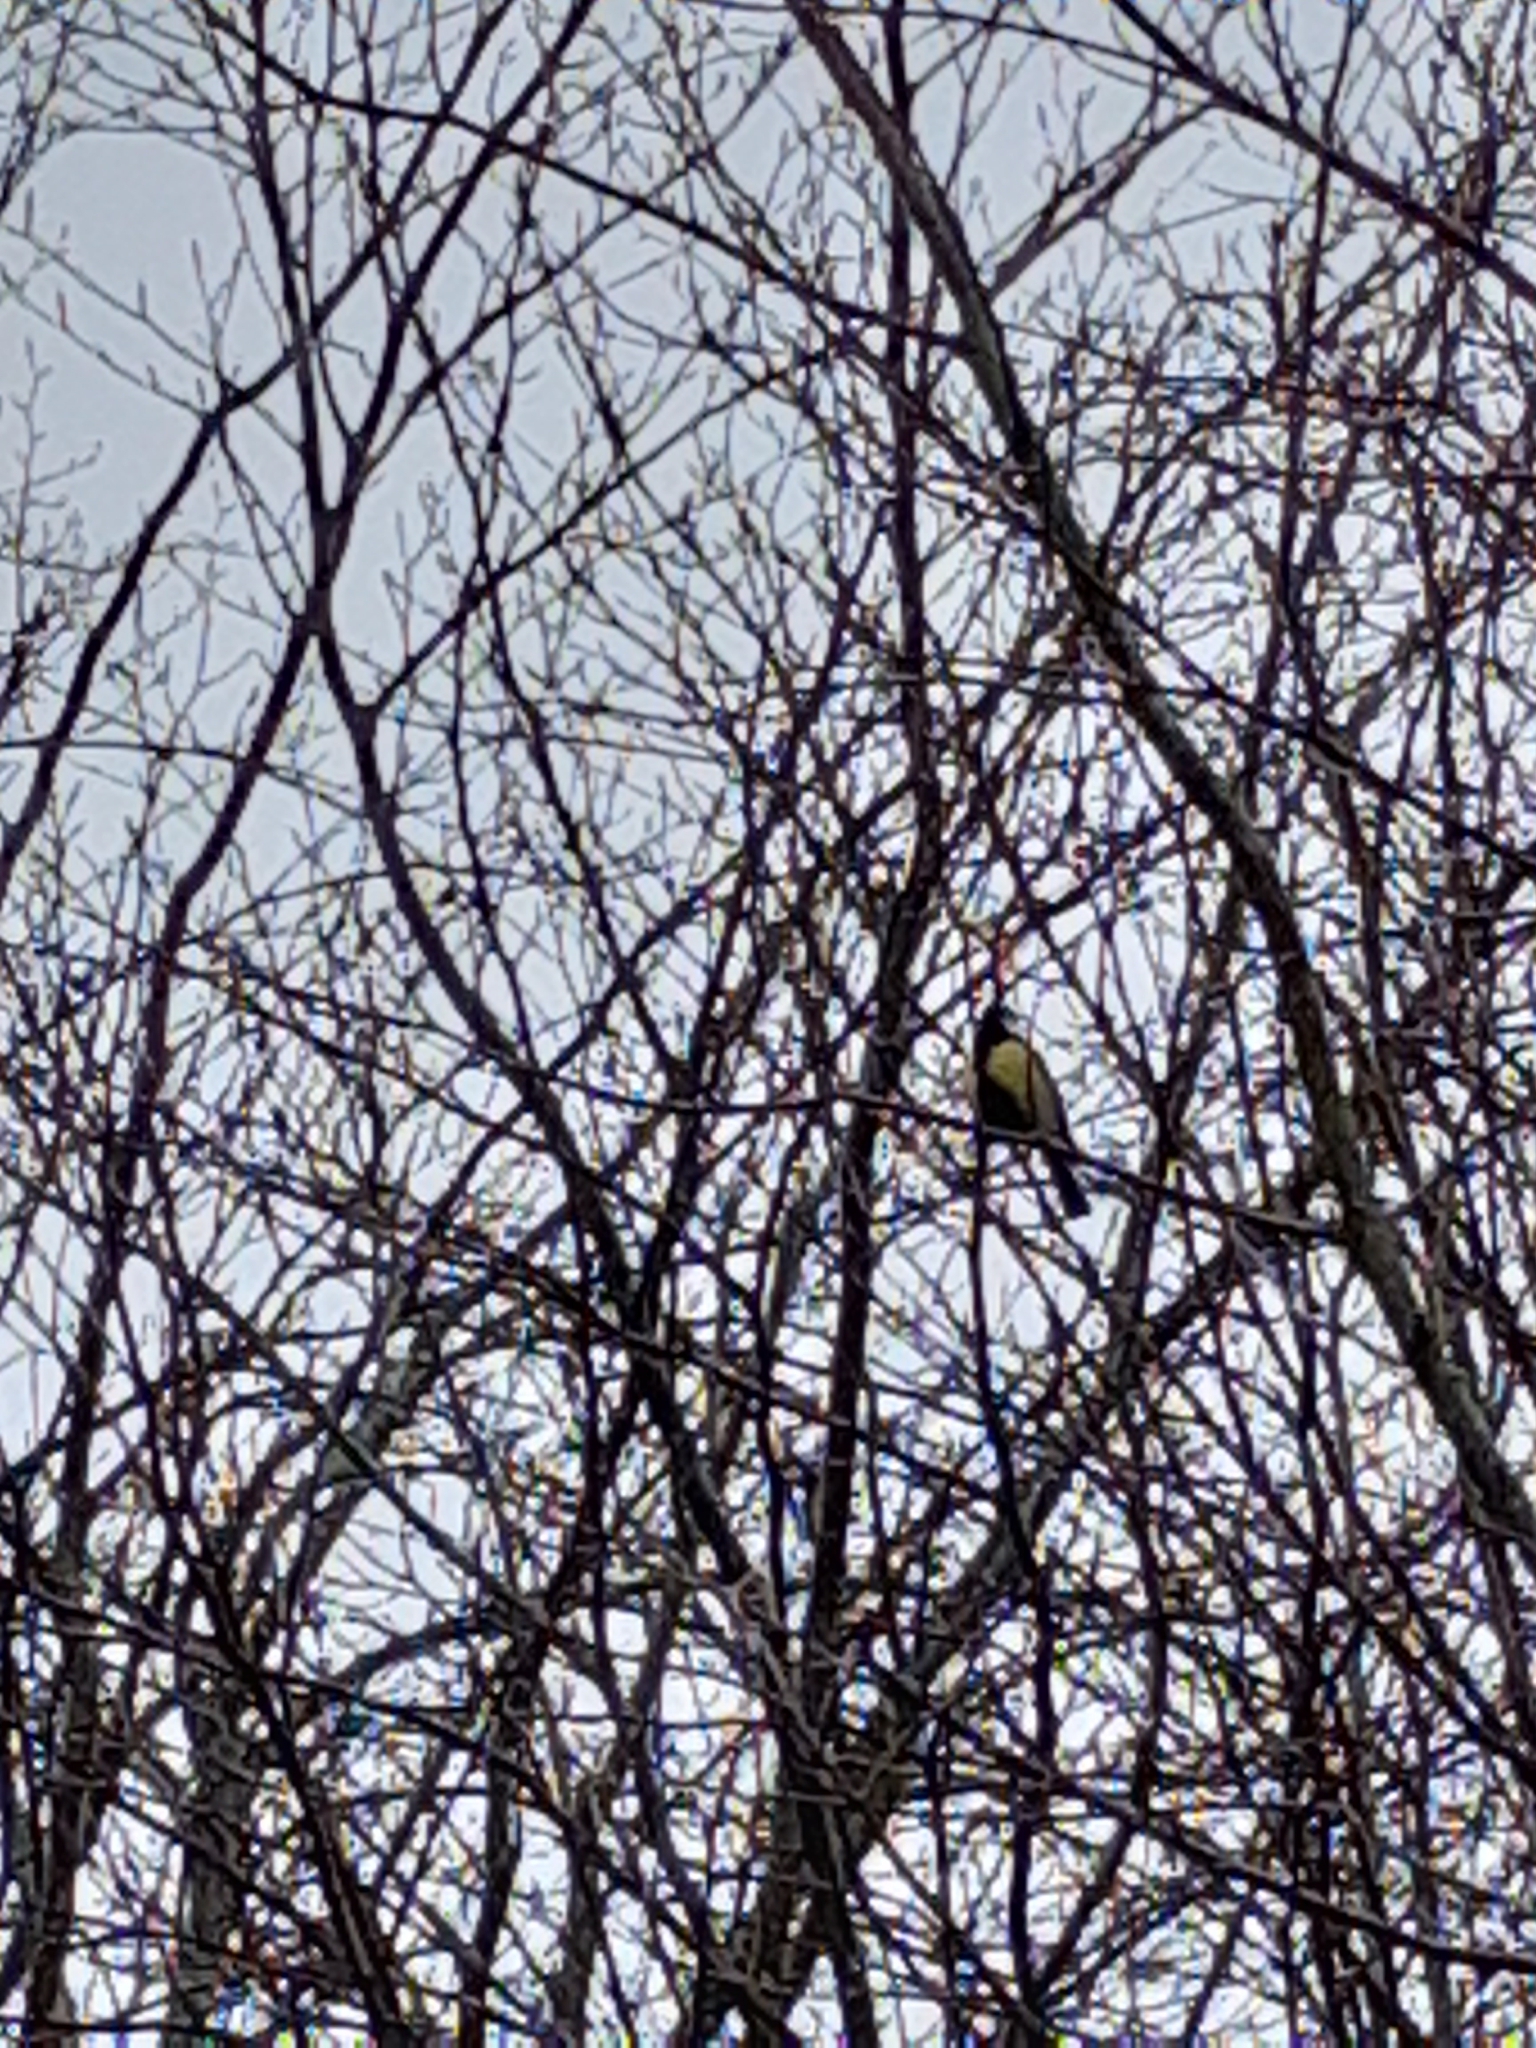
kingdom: Animalia
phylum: Chordata
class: Aves
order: Passeriformes
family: Paridae
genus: Parus
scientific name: Parus major
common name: Great tit
